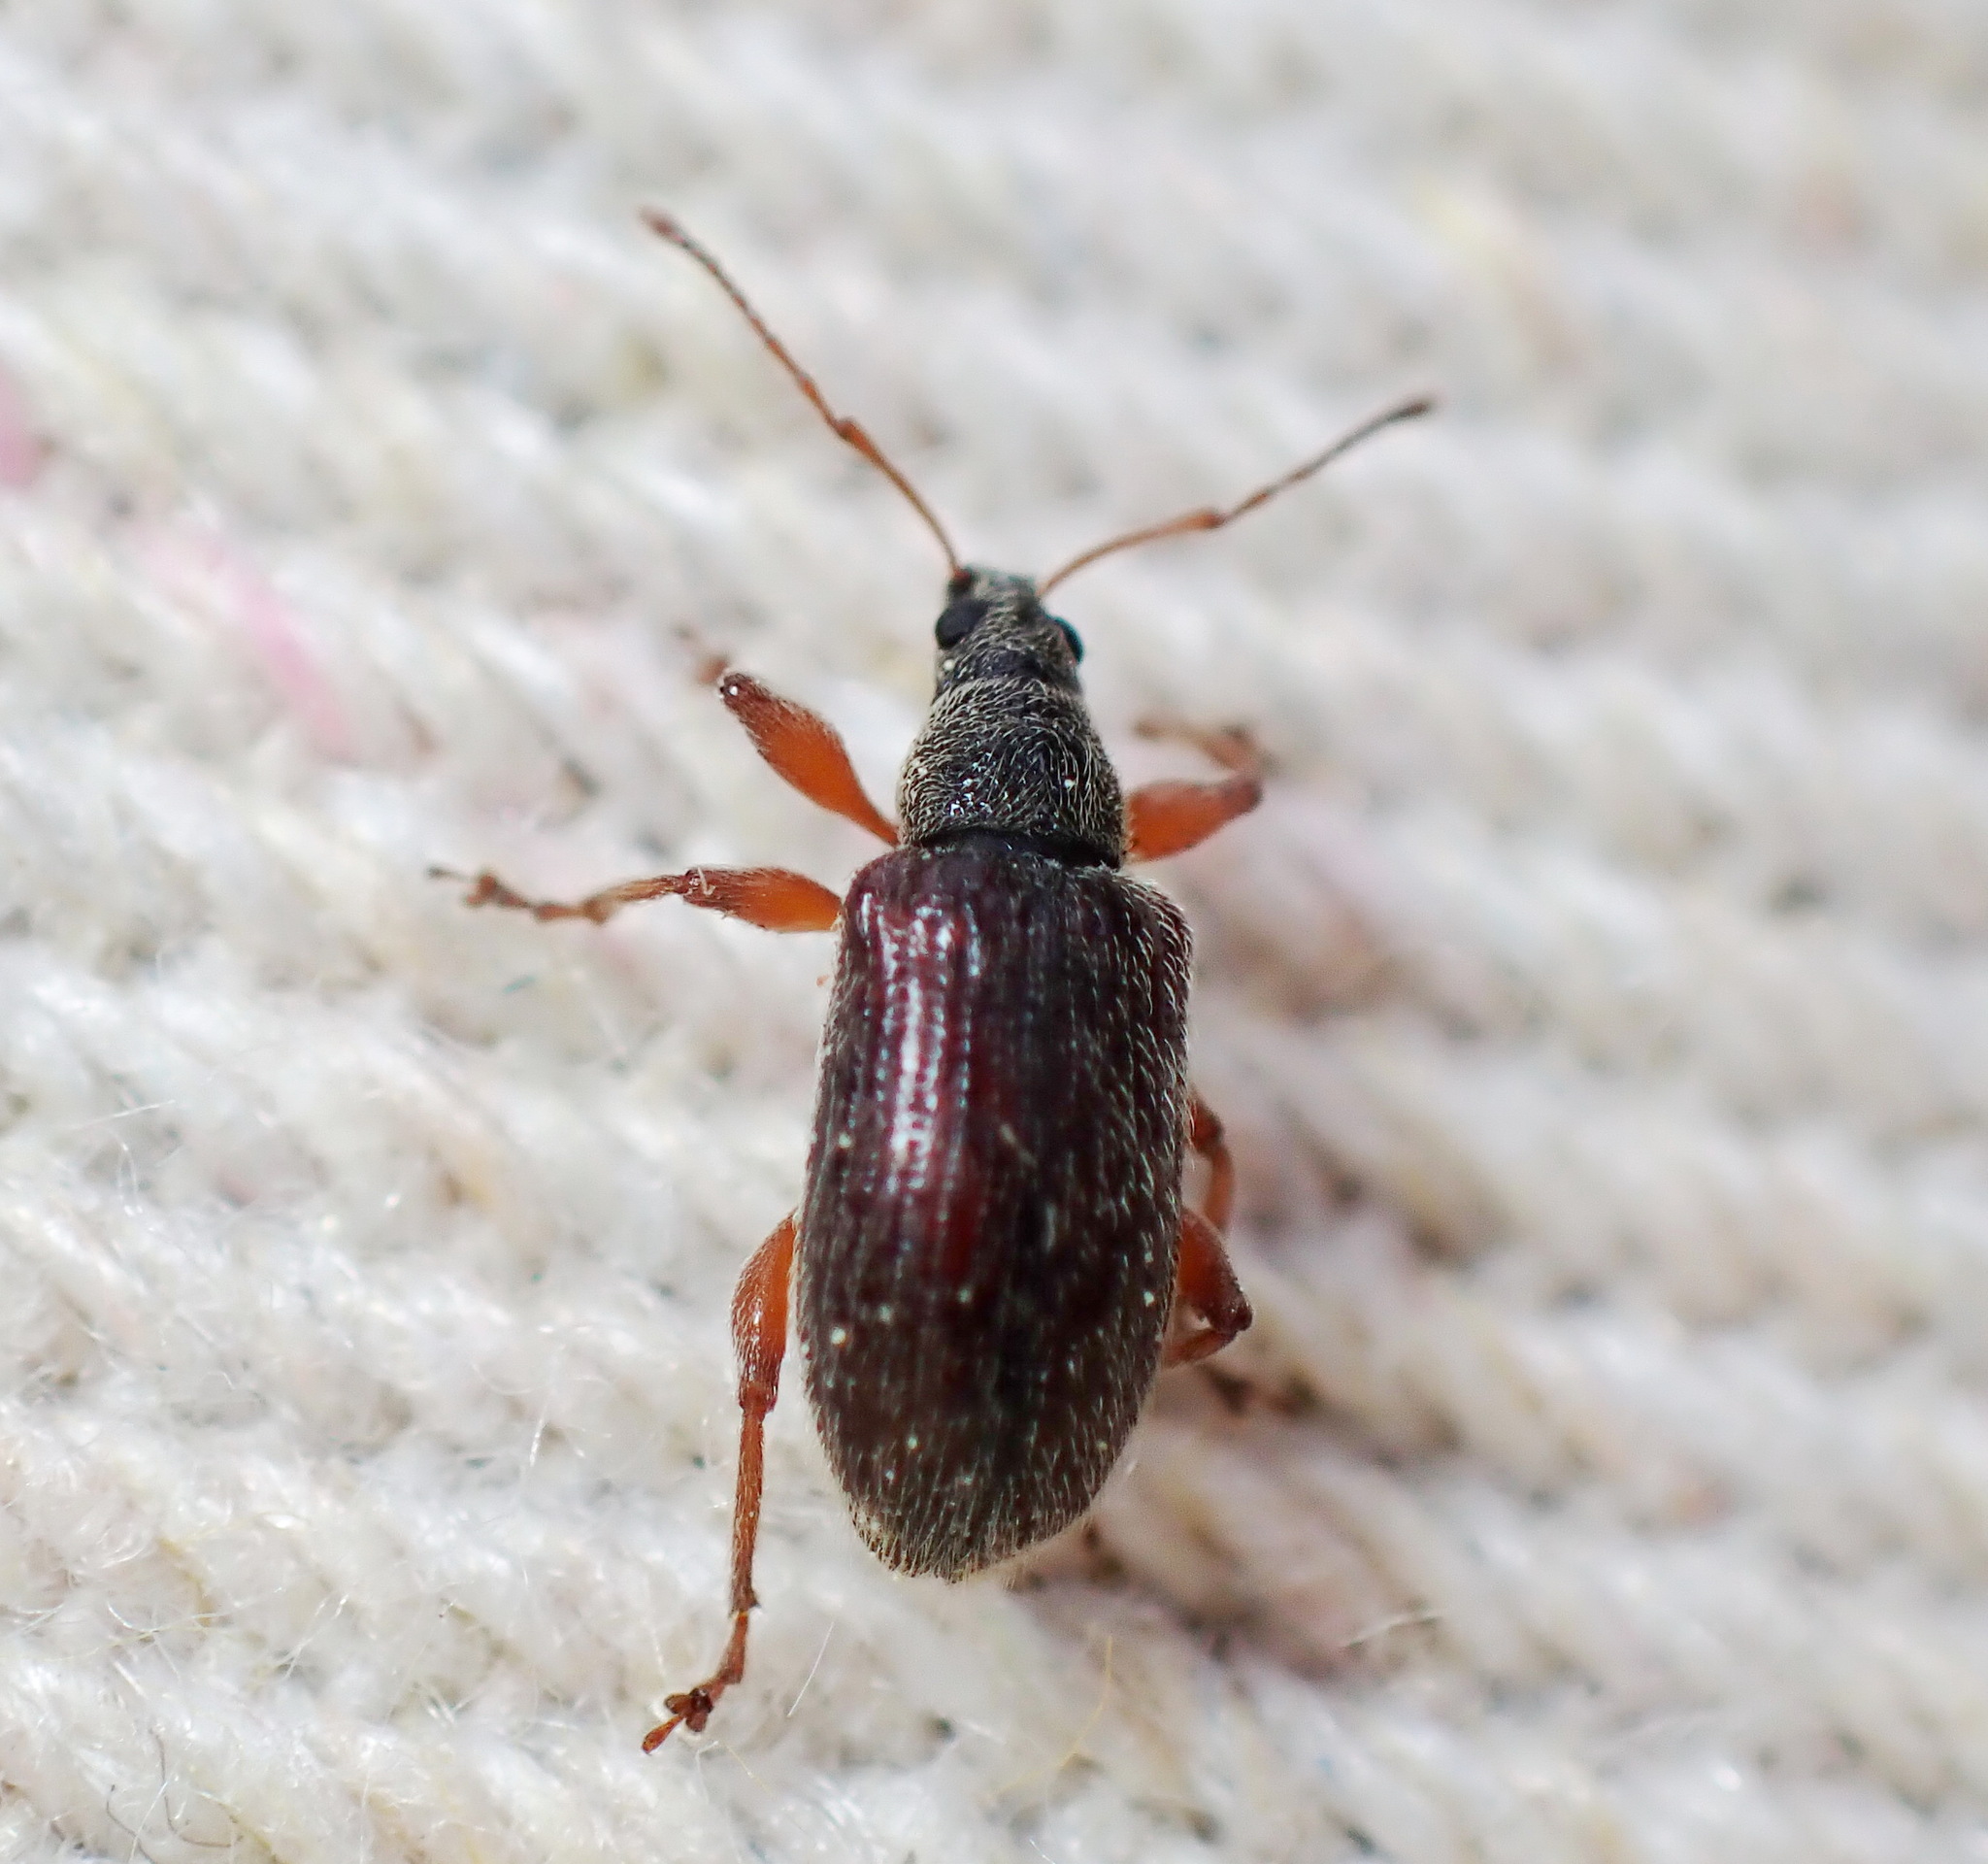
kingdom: Animalia
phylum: Arthropoda
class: Insecta
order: Coleoptera
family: Curculionidae
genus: Phyllobius
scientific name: Phyllobius oblongus
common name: Brown leaf weevil
